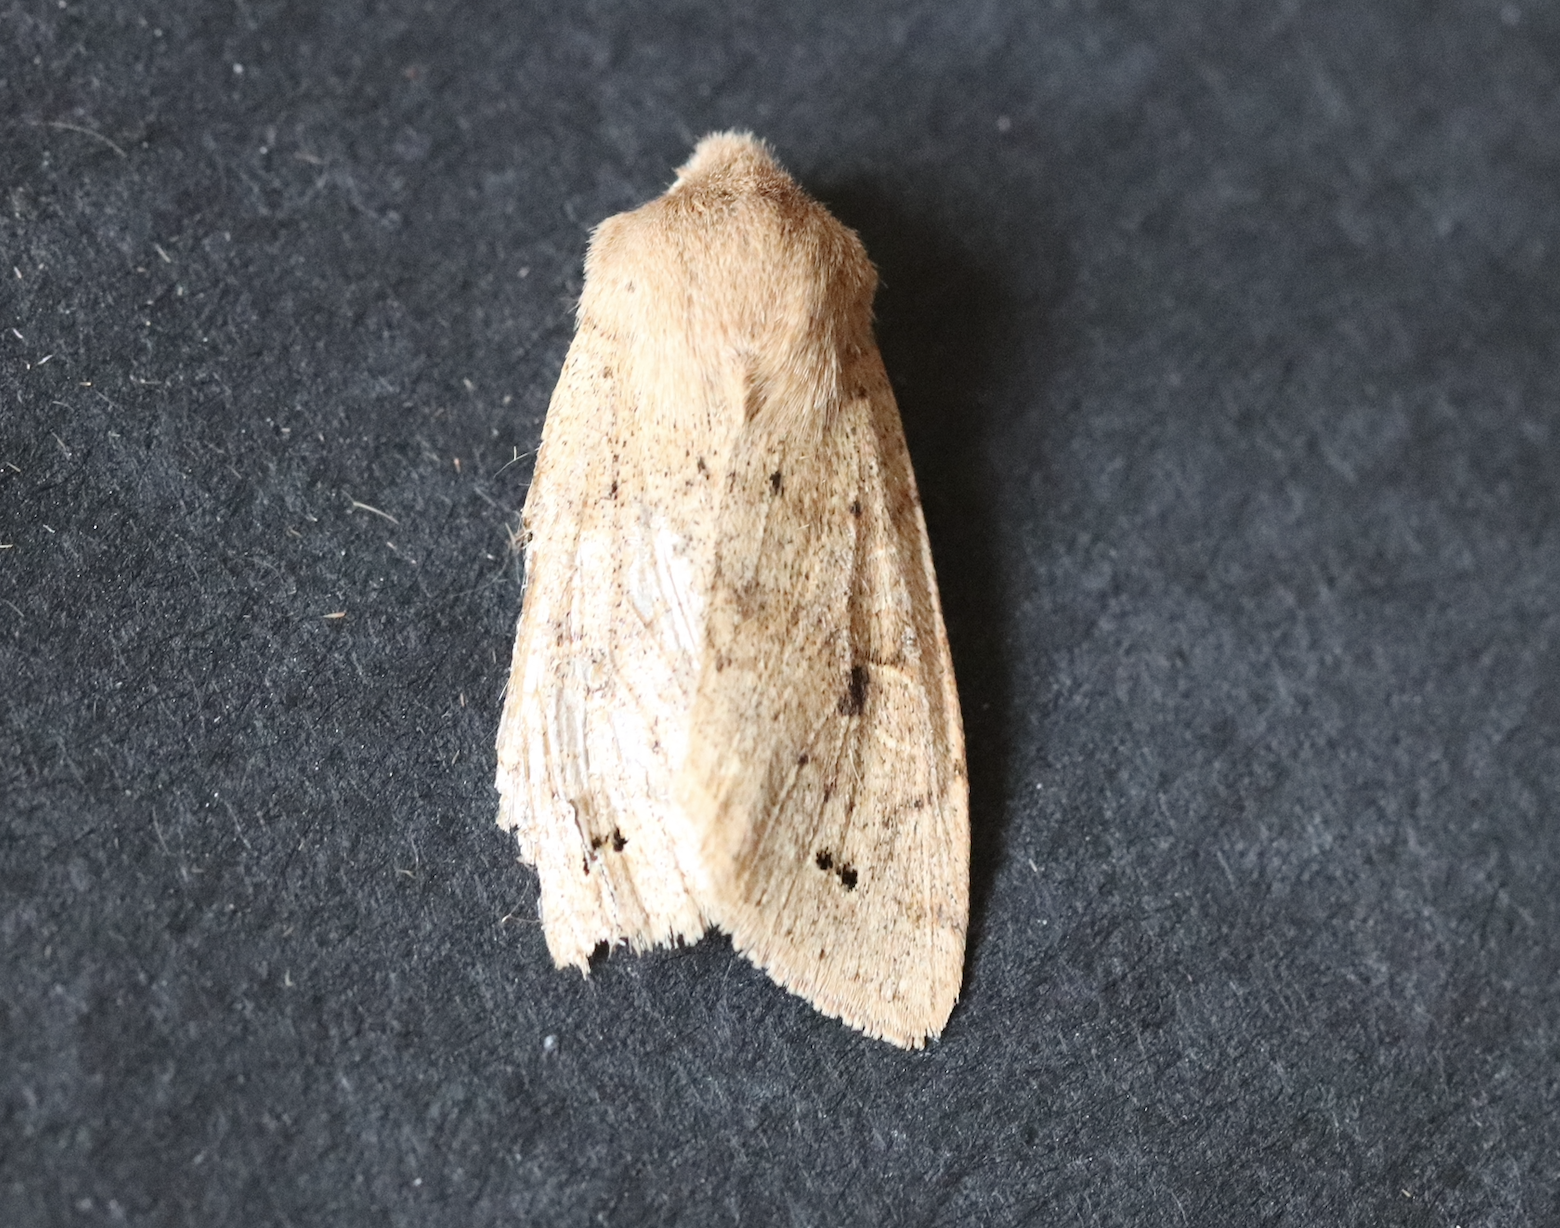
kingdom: Animalia
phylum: Arthropoda
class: Insecta
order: Lepidoptera
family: Noctuidae
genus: Anorthoa
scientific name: Anorthoa munda
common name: Twin-spotted quaker
